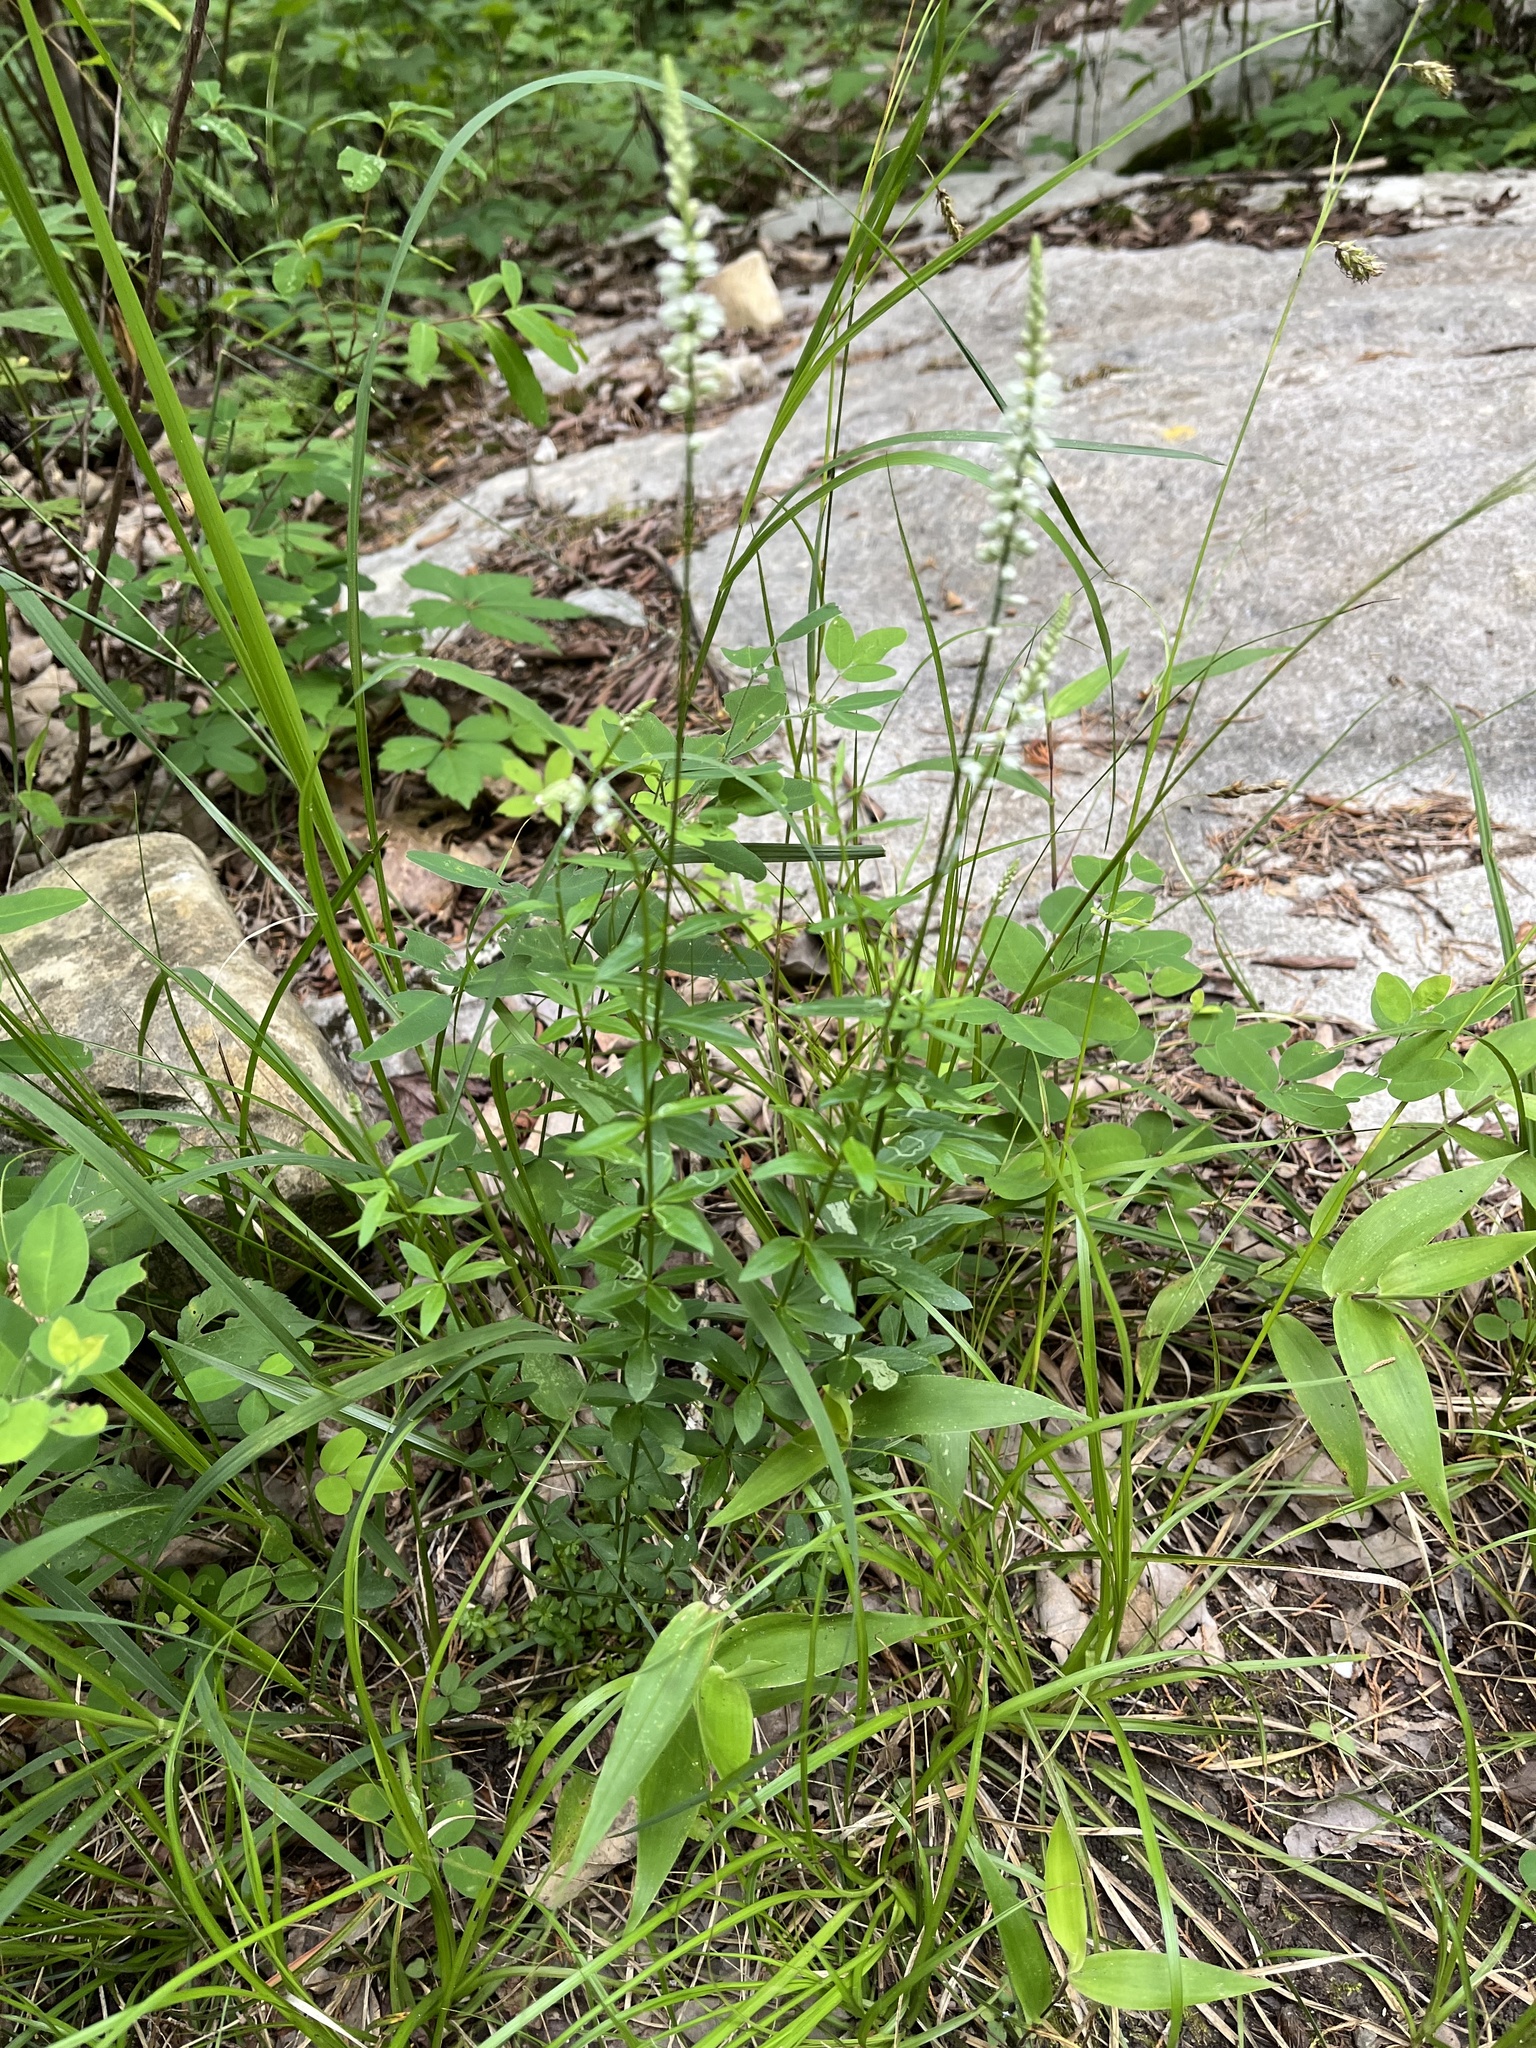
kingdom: Plantae
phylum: Tracheophyta
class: Magnoliopsida
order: Fabales
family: Polygalaceae
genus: Polygala
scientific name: Polygala boykinii
